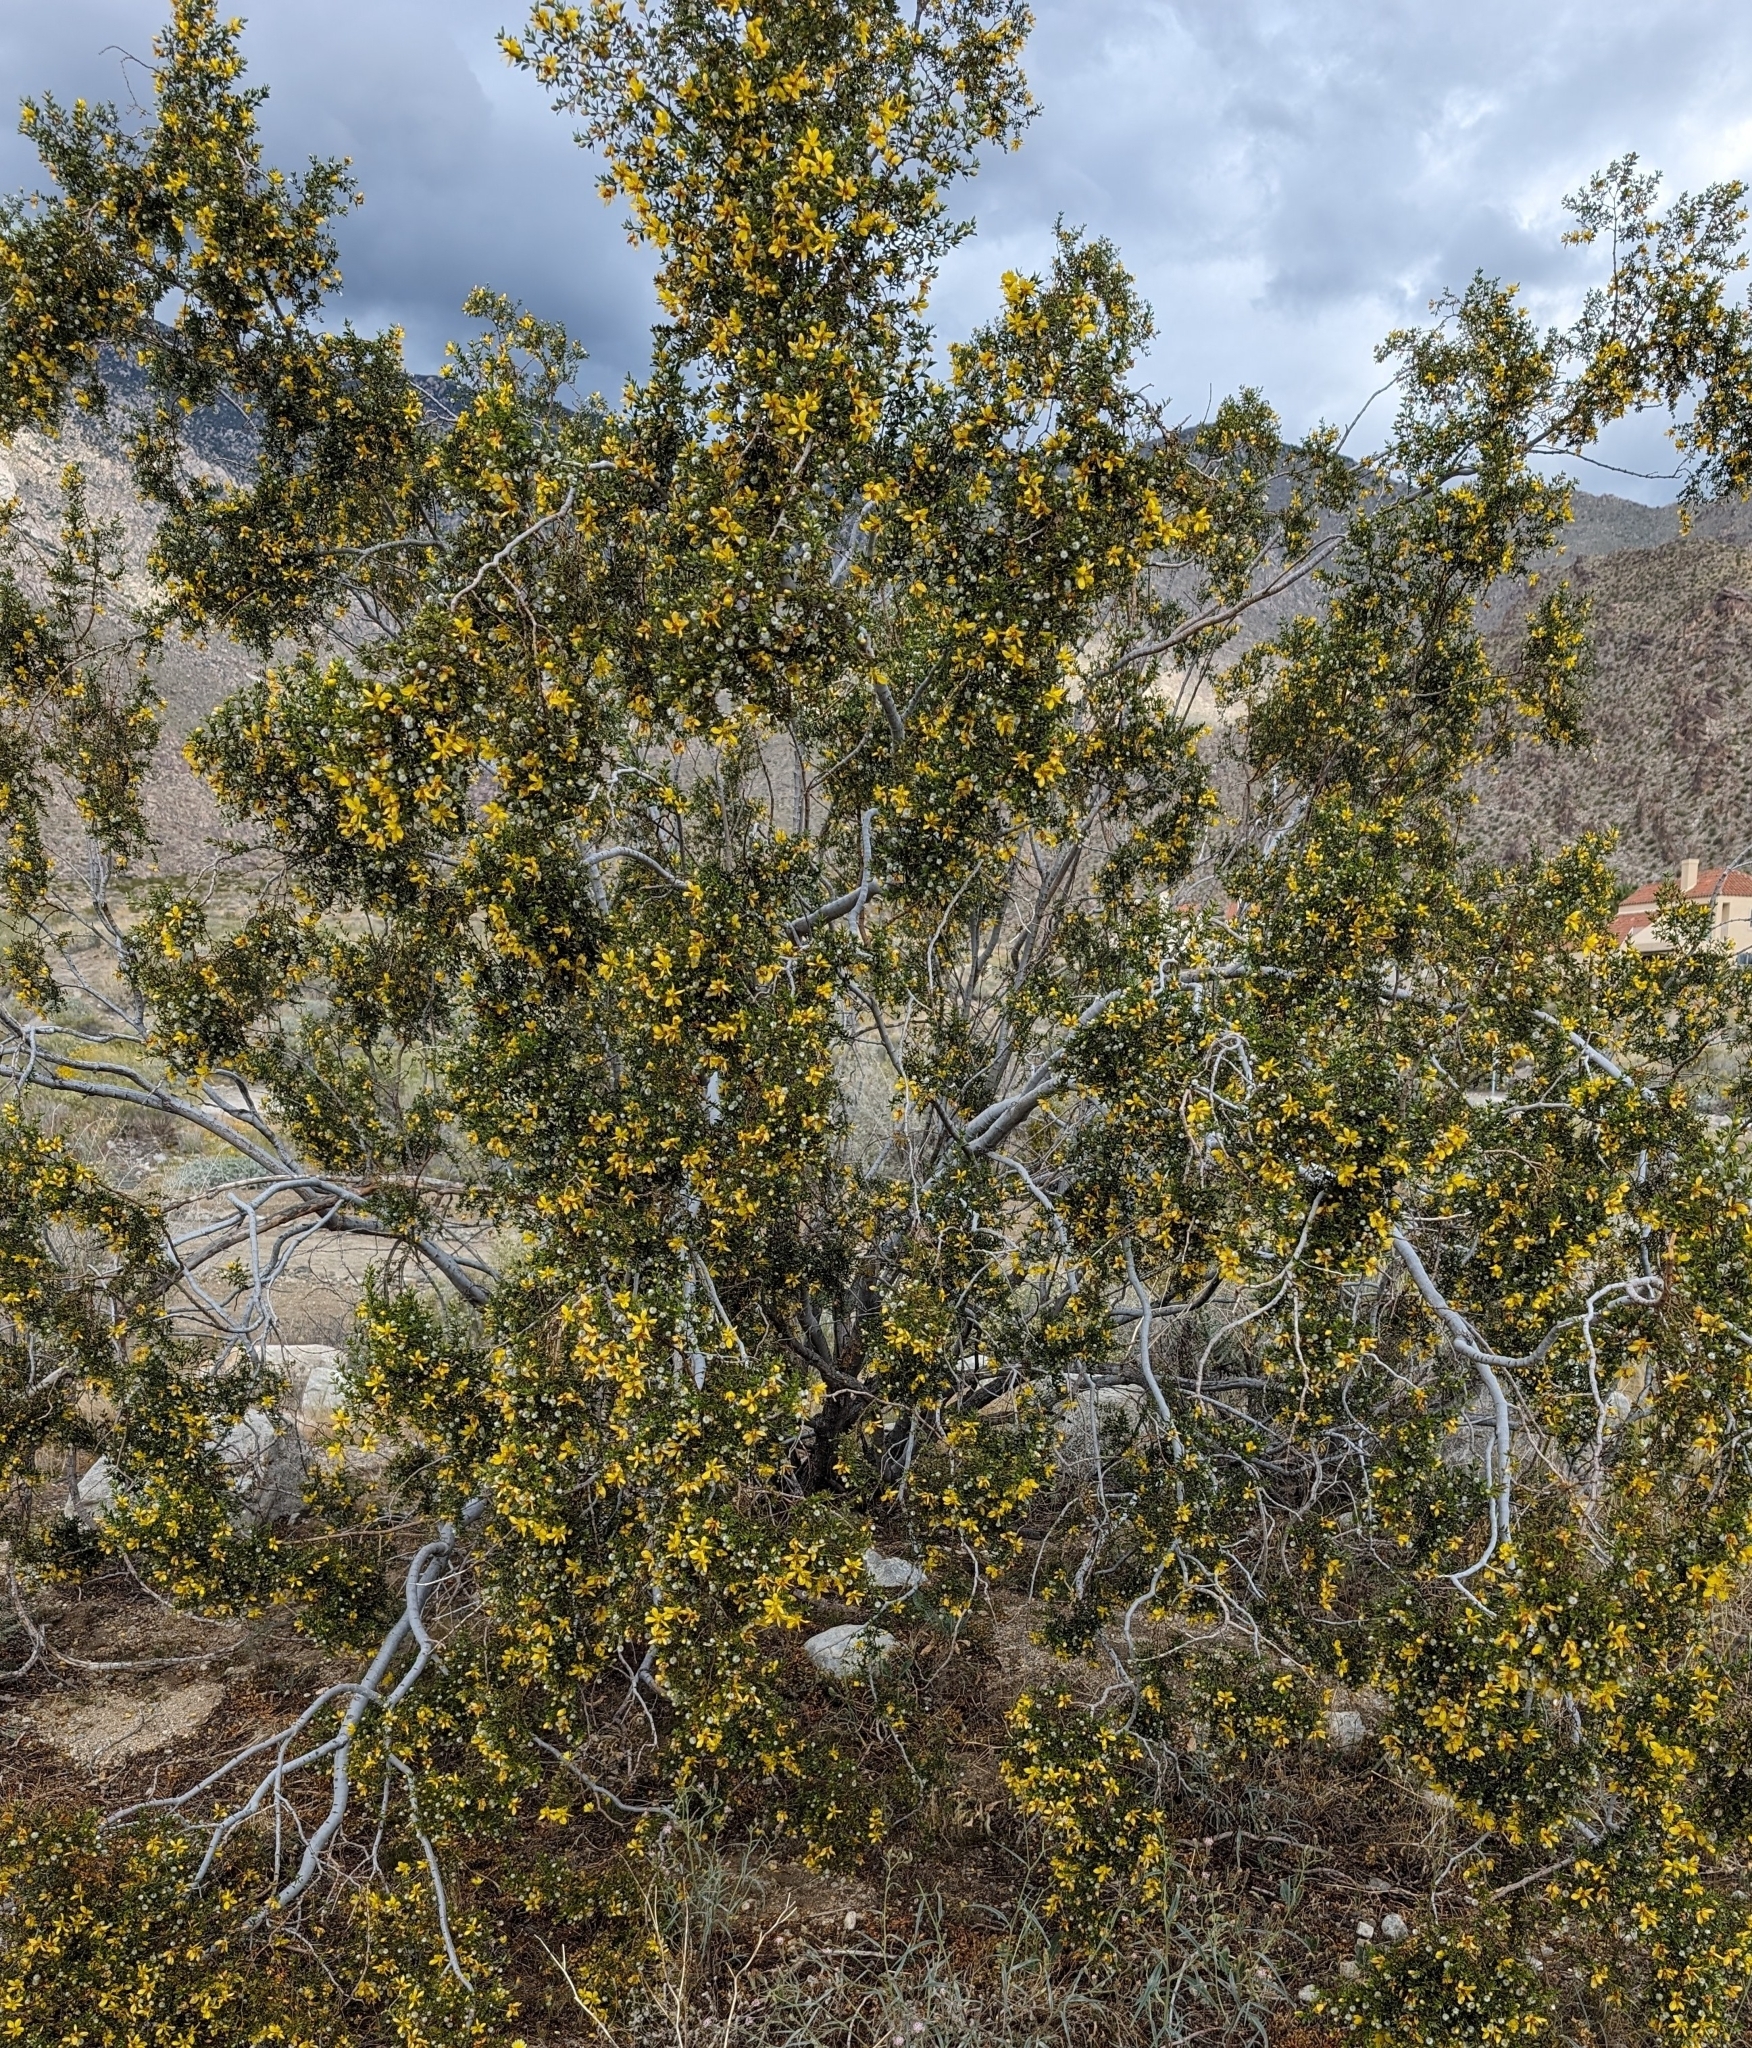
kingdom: Plantae
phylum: Tracheophyta
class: Magnoliopsida
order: Zygophyllales
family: Zygophyllaceae
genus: Larrea
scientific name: Larrea tridentata
